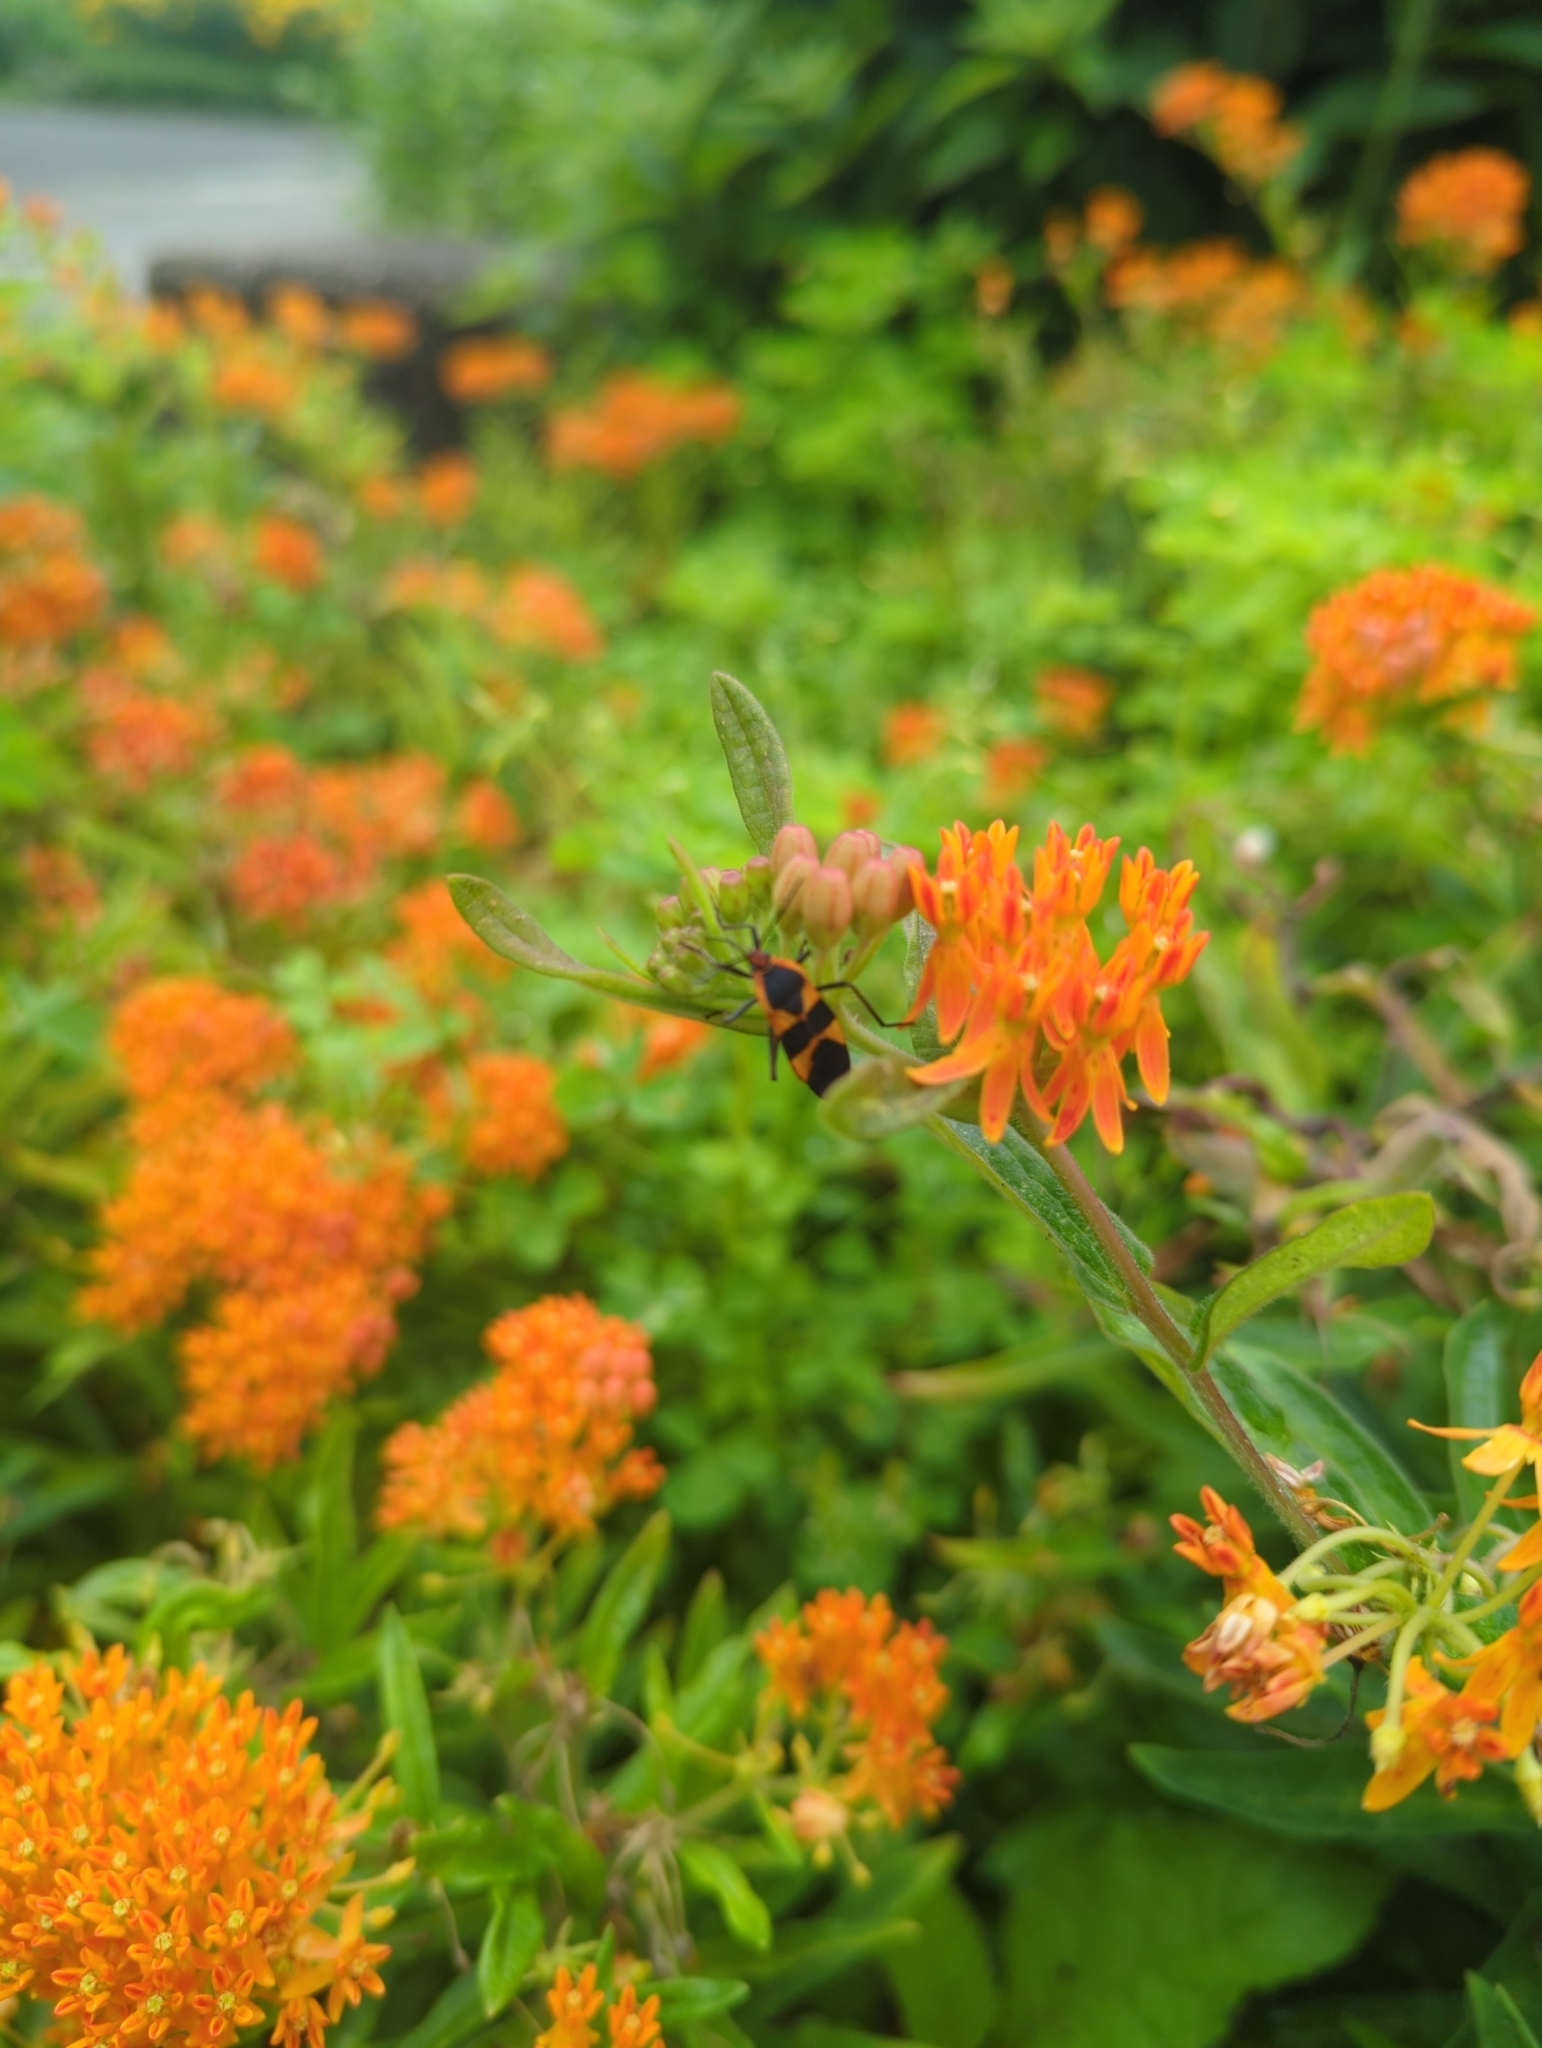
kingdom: Animalia
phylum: Arthropoda
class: Insecta
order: Hemiptera
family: Lygaeidae
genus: Oncopeltus
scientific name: Oncopeltus fasciatus
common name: Large milkweed bug
